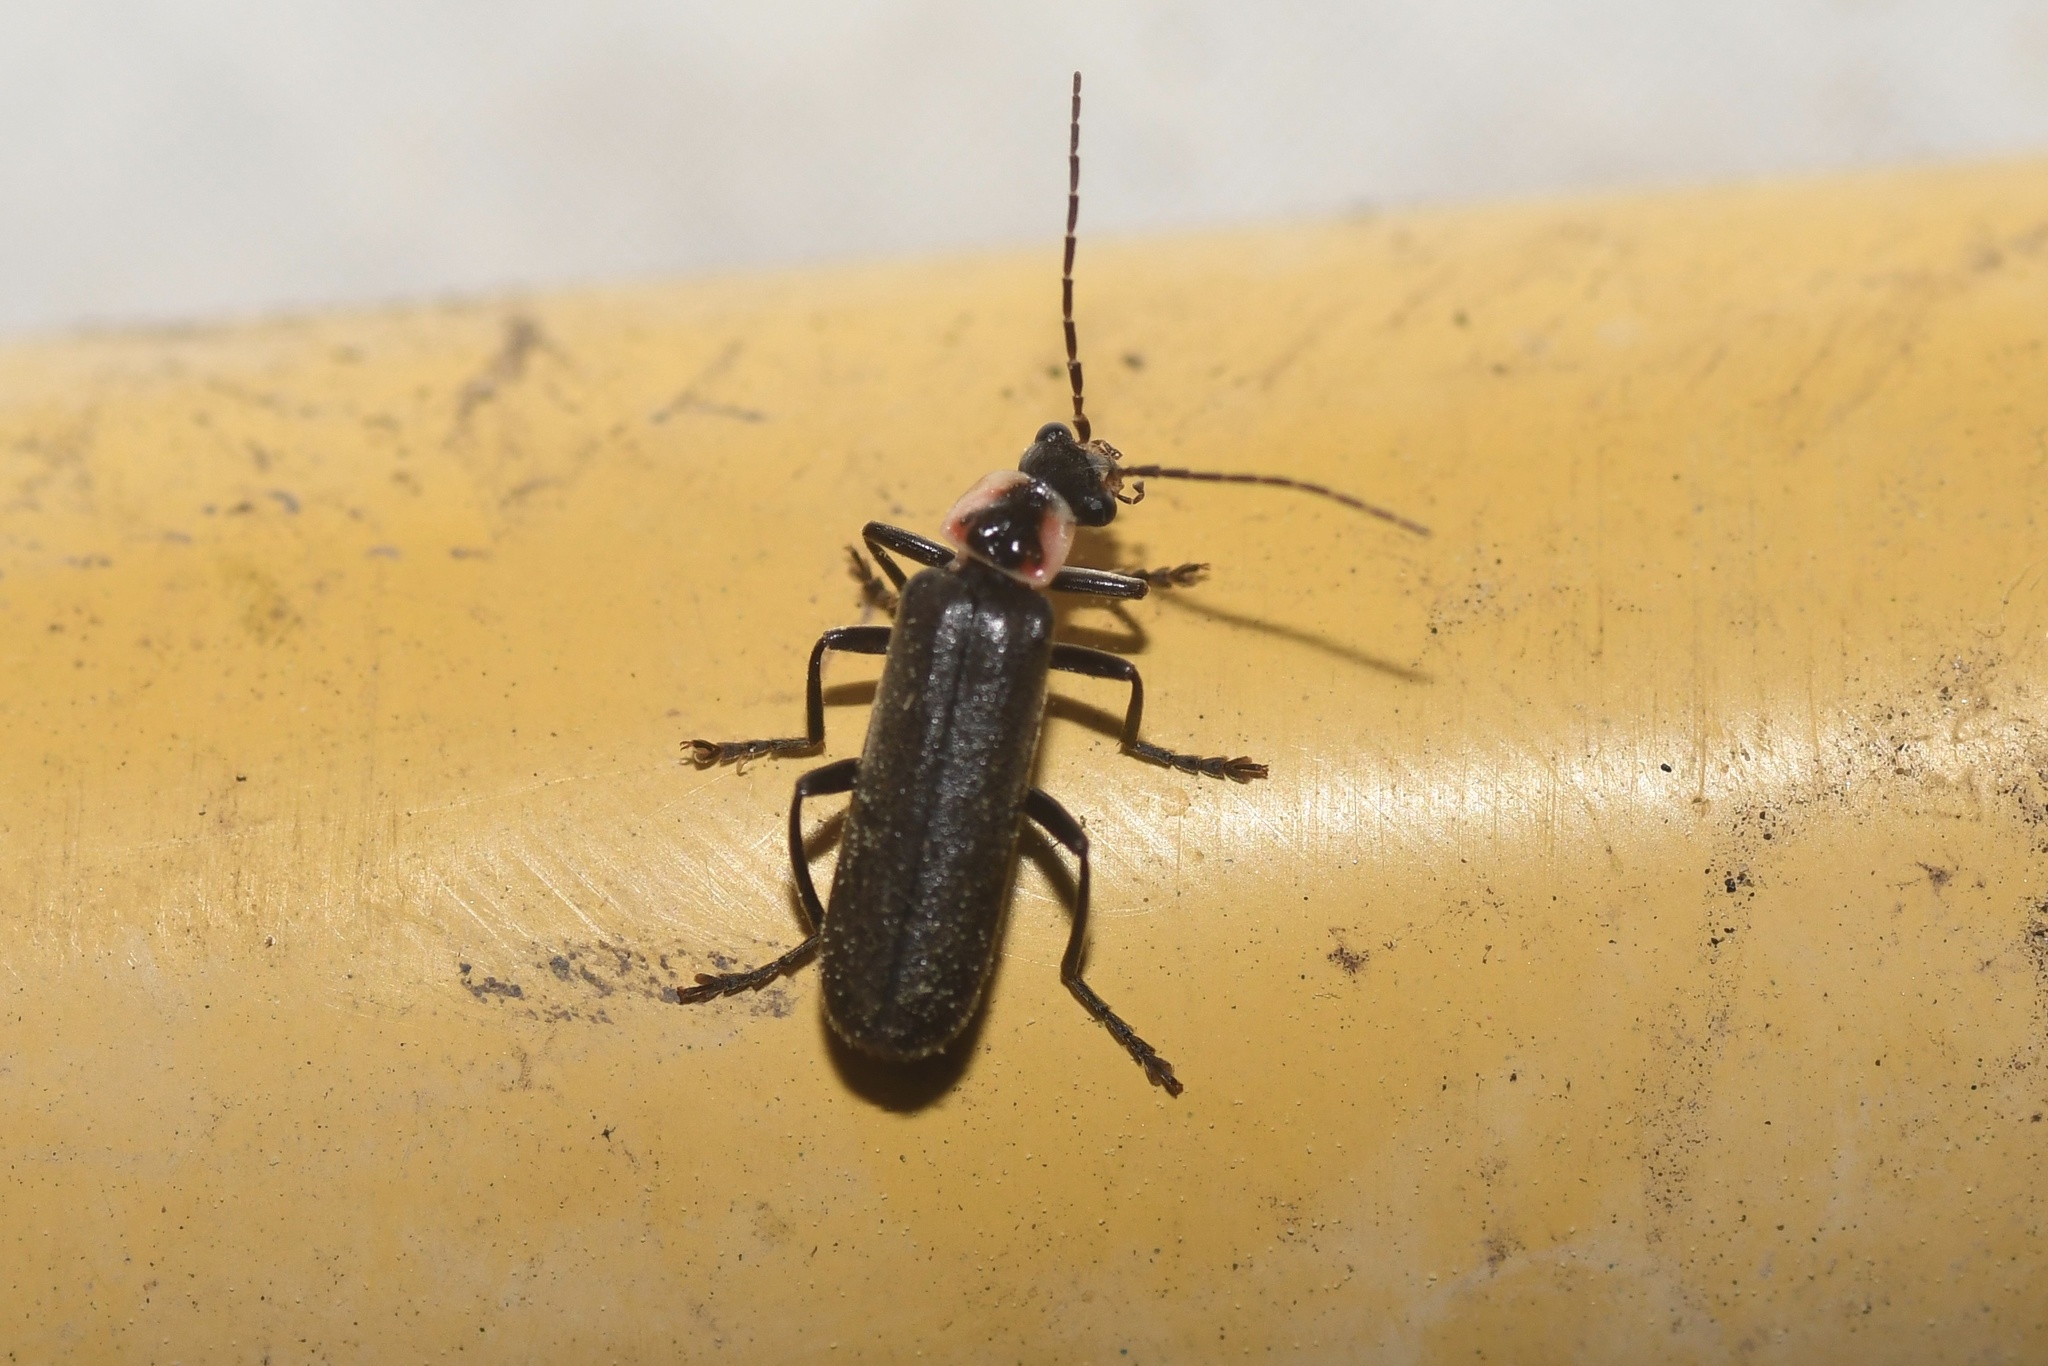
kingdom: Animalia
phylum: Arthropoda
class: Insecta
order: Coleoptera
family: Cantharidae
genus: Rhaxonycha
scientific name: Rhaxonycha bilobata
